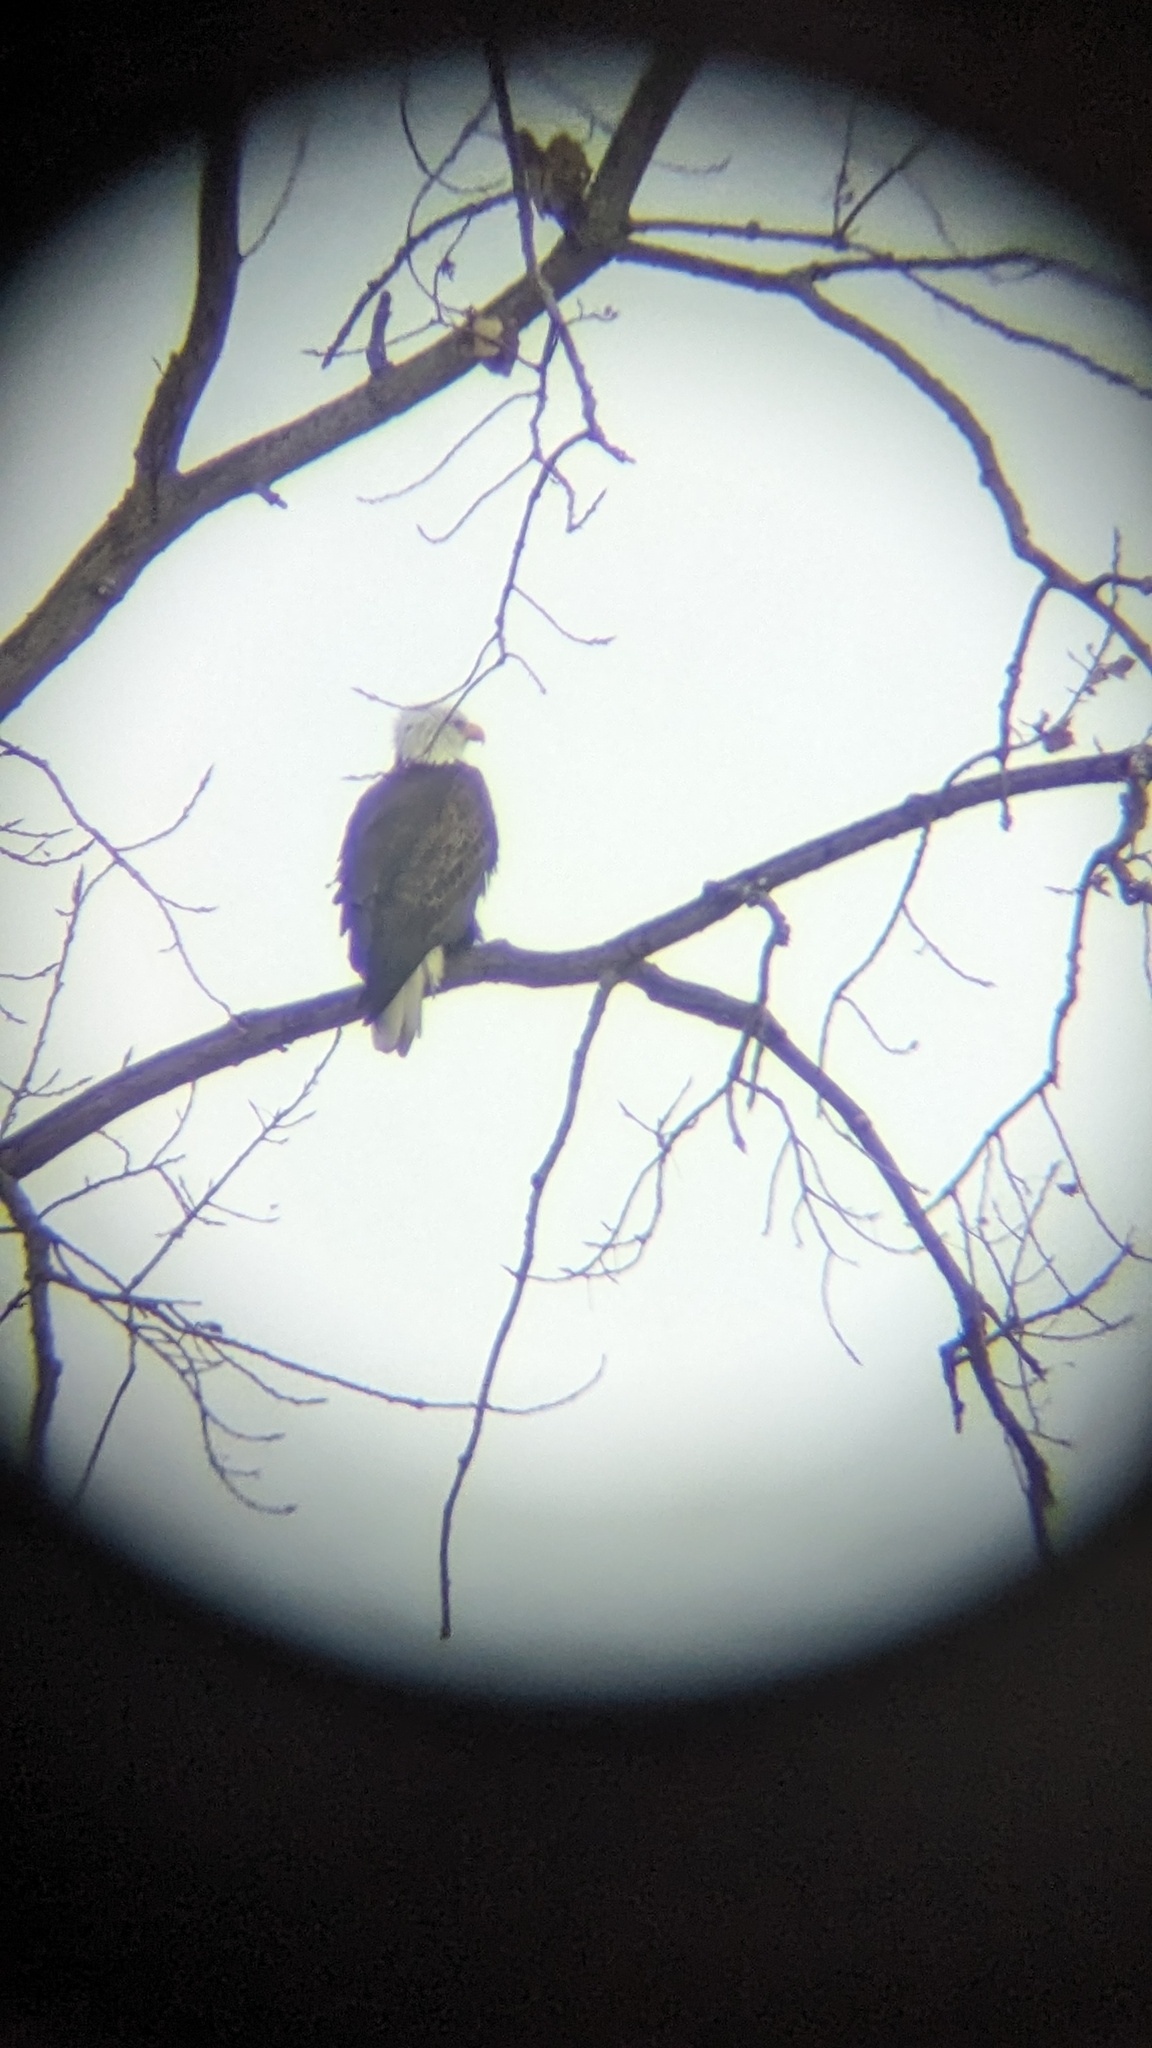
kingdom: Animalia
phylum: Chordata
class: Aves
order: Accipitriformes
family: Accipitridae
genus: Haliaeetus
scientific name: Haliaeetus leucocephalus
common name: Bald eagle
